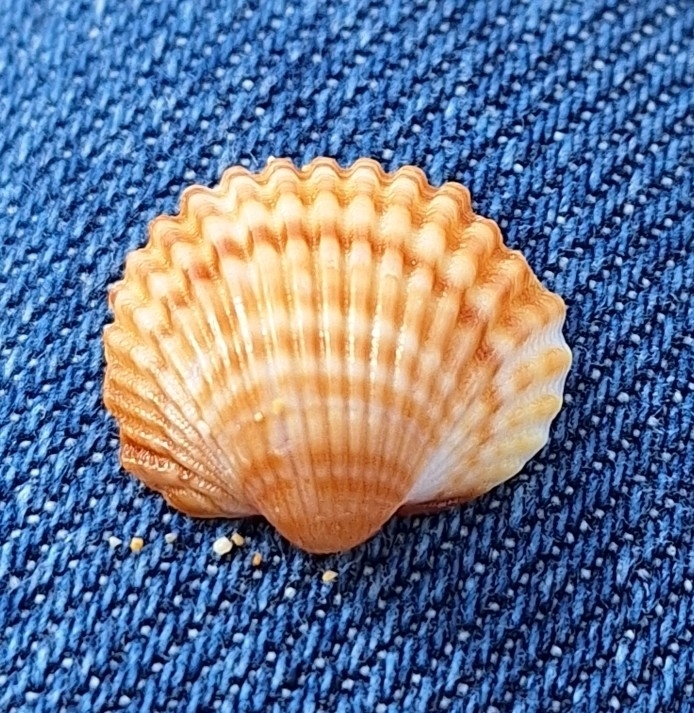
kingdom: Animalia
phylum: Mollusca
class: Bivalvia
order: Cardiida
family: Cardiidae
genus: Acanthocardia
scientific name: Acanthocardia tuberculata
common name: Rough cockle
